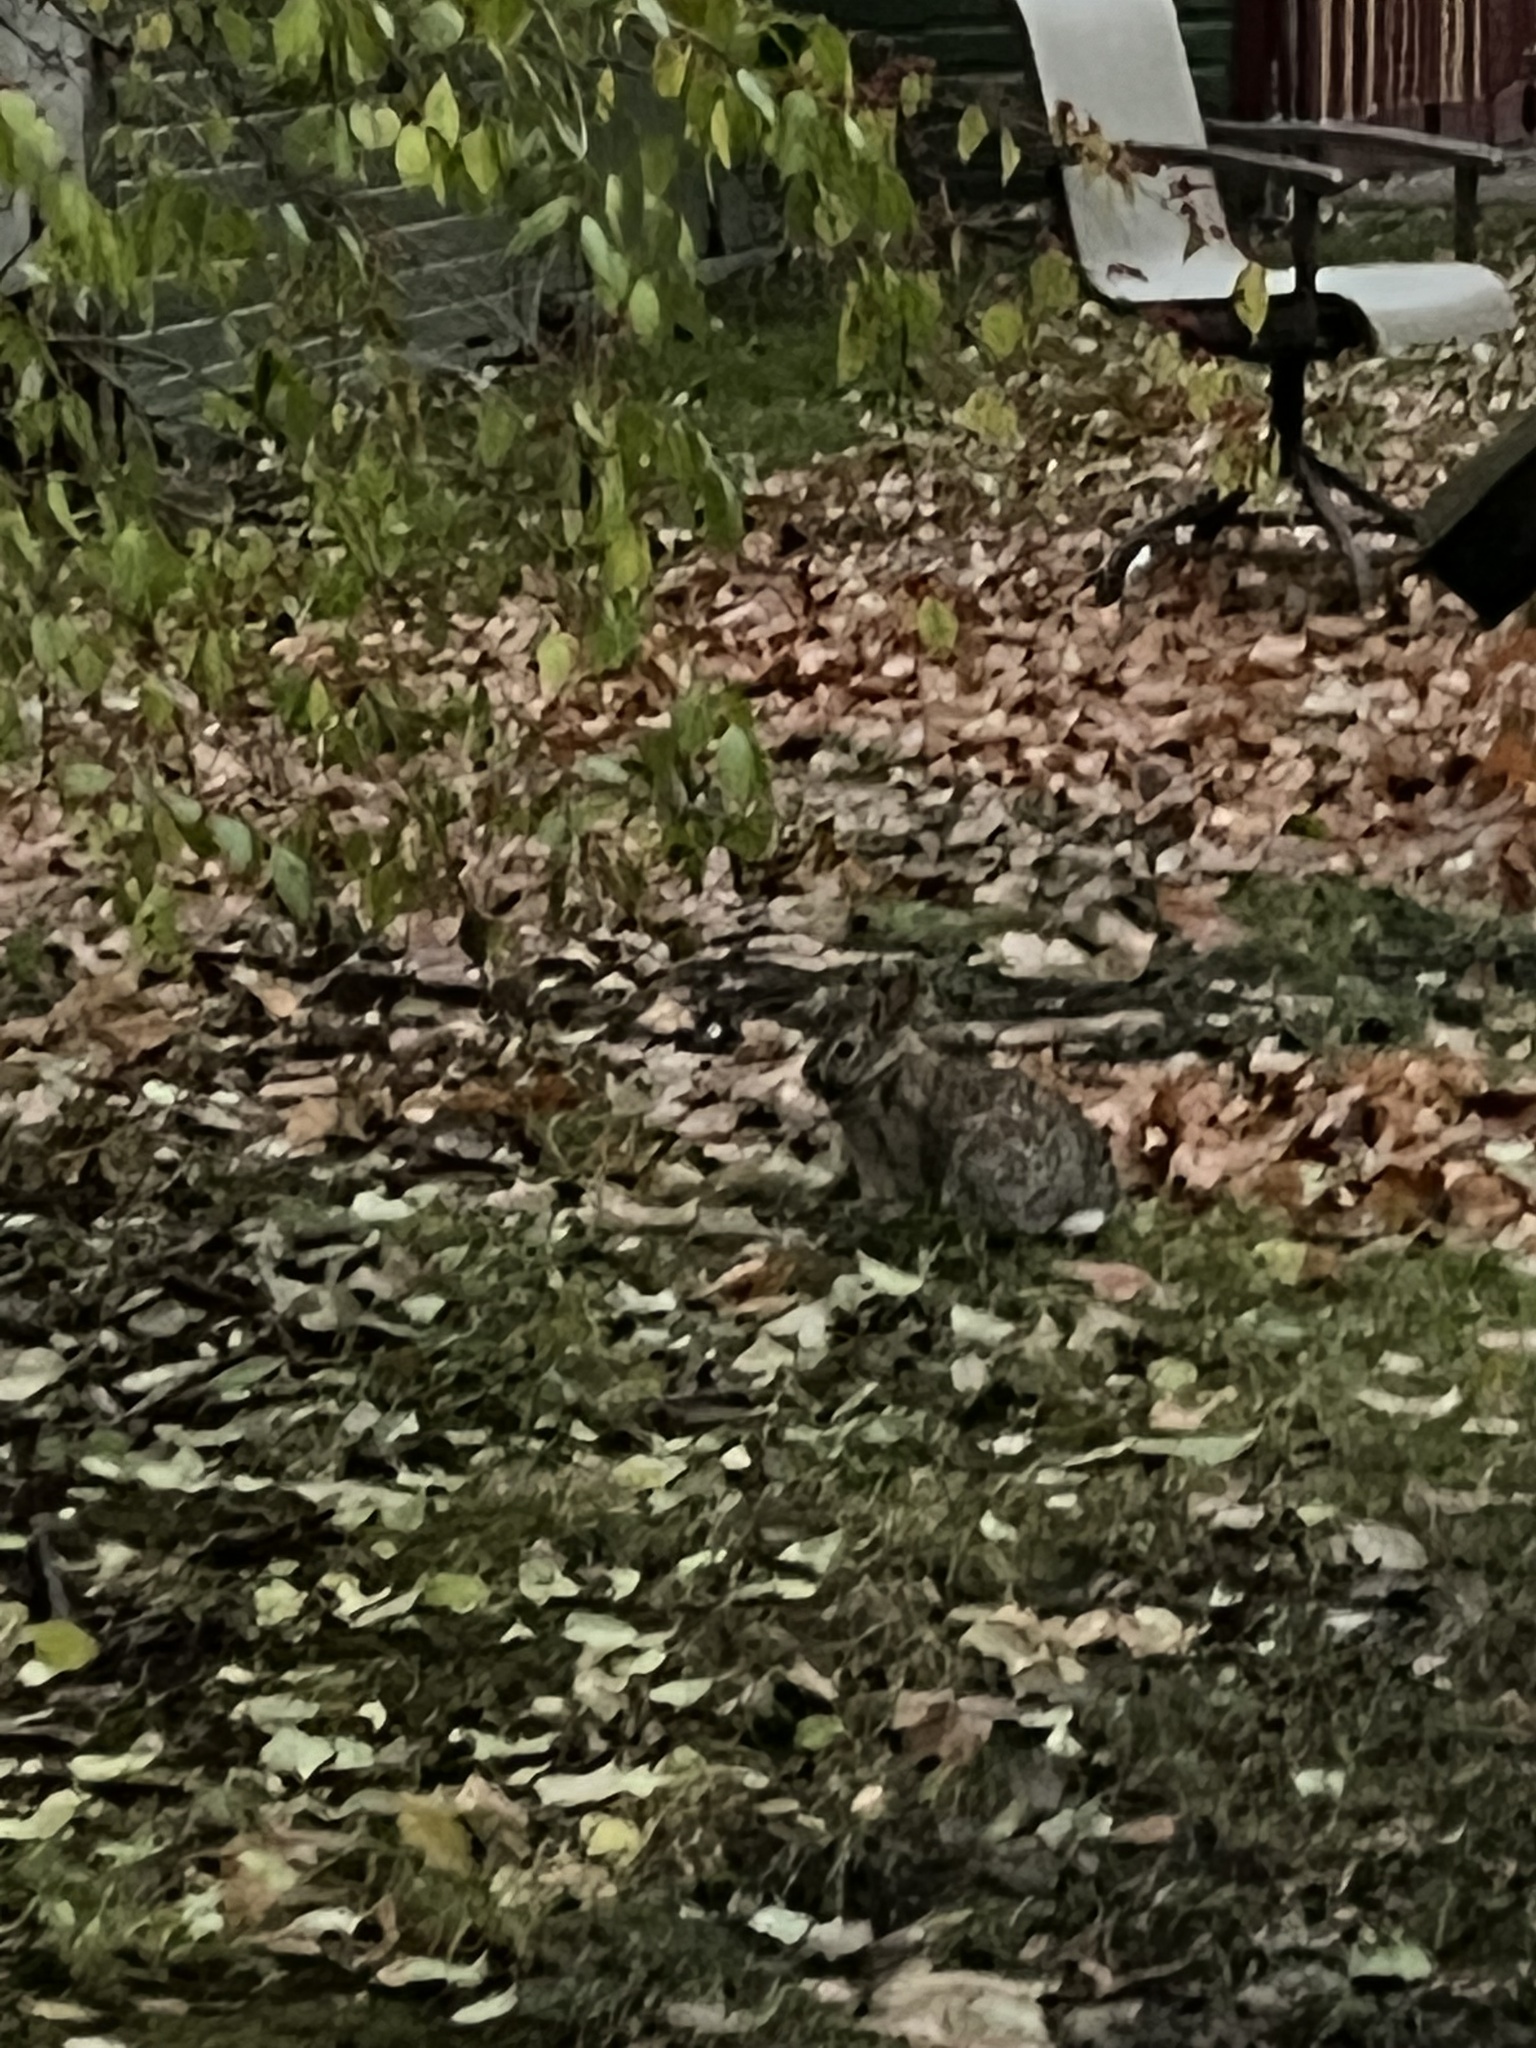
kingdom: Animalia
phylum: Chordata
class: Mammalia
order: Lagomorpha
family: Leporidae
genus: Sylvilagus
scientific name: Sylvilagus floridanus
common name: Eastern cottontail
